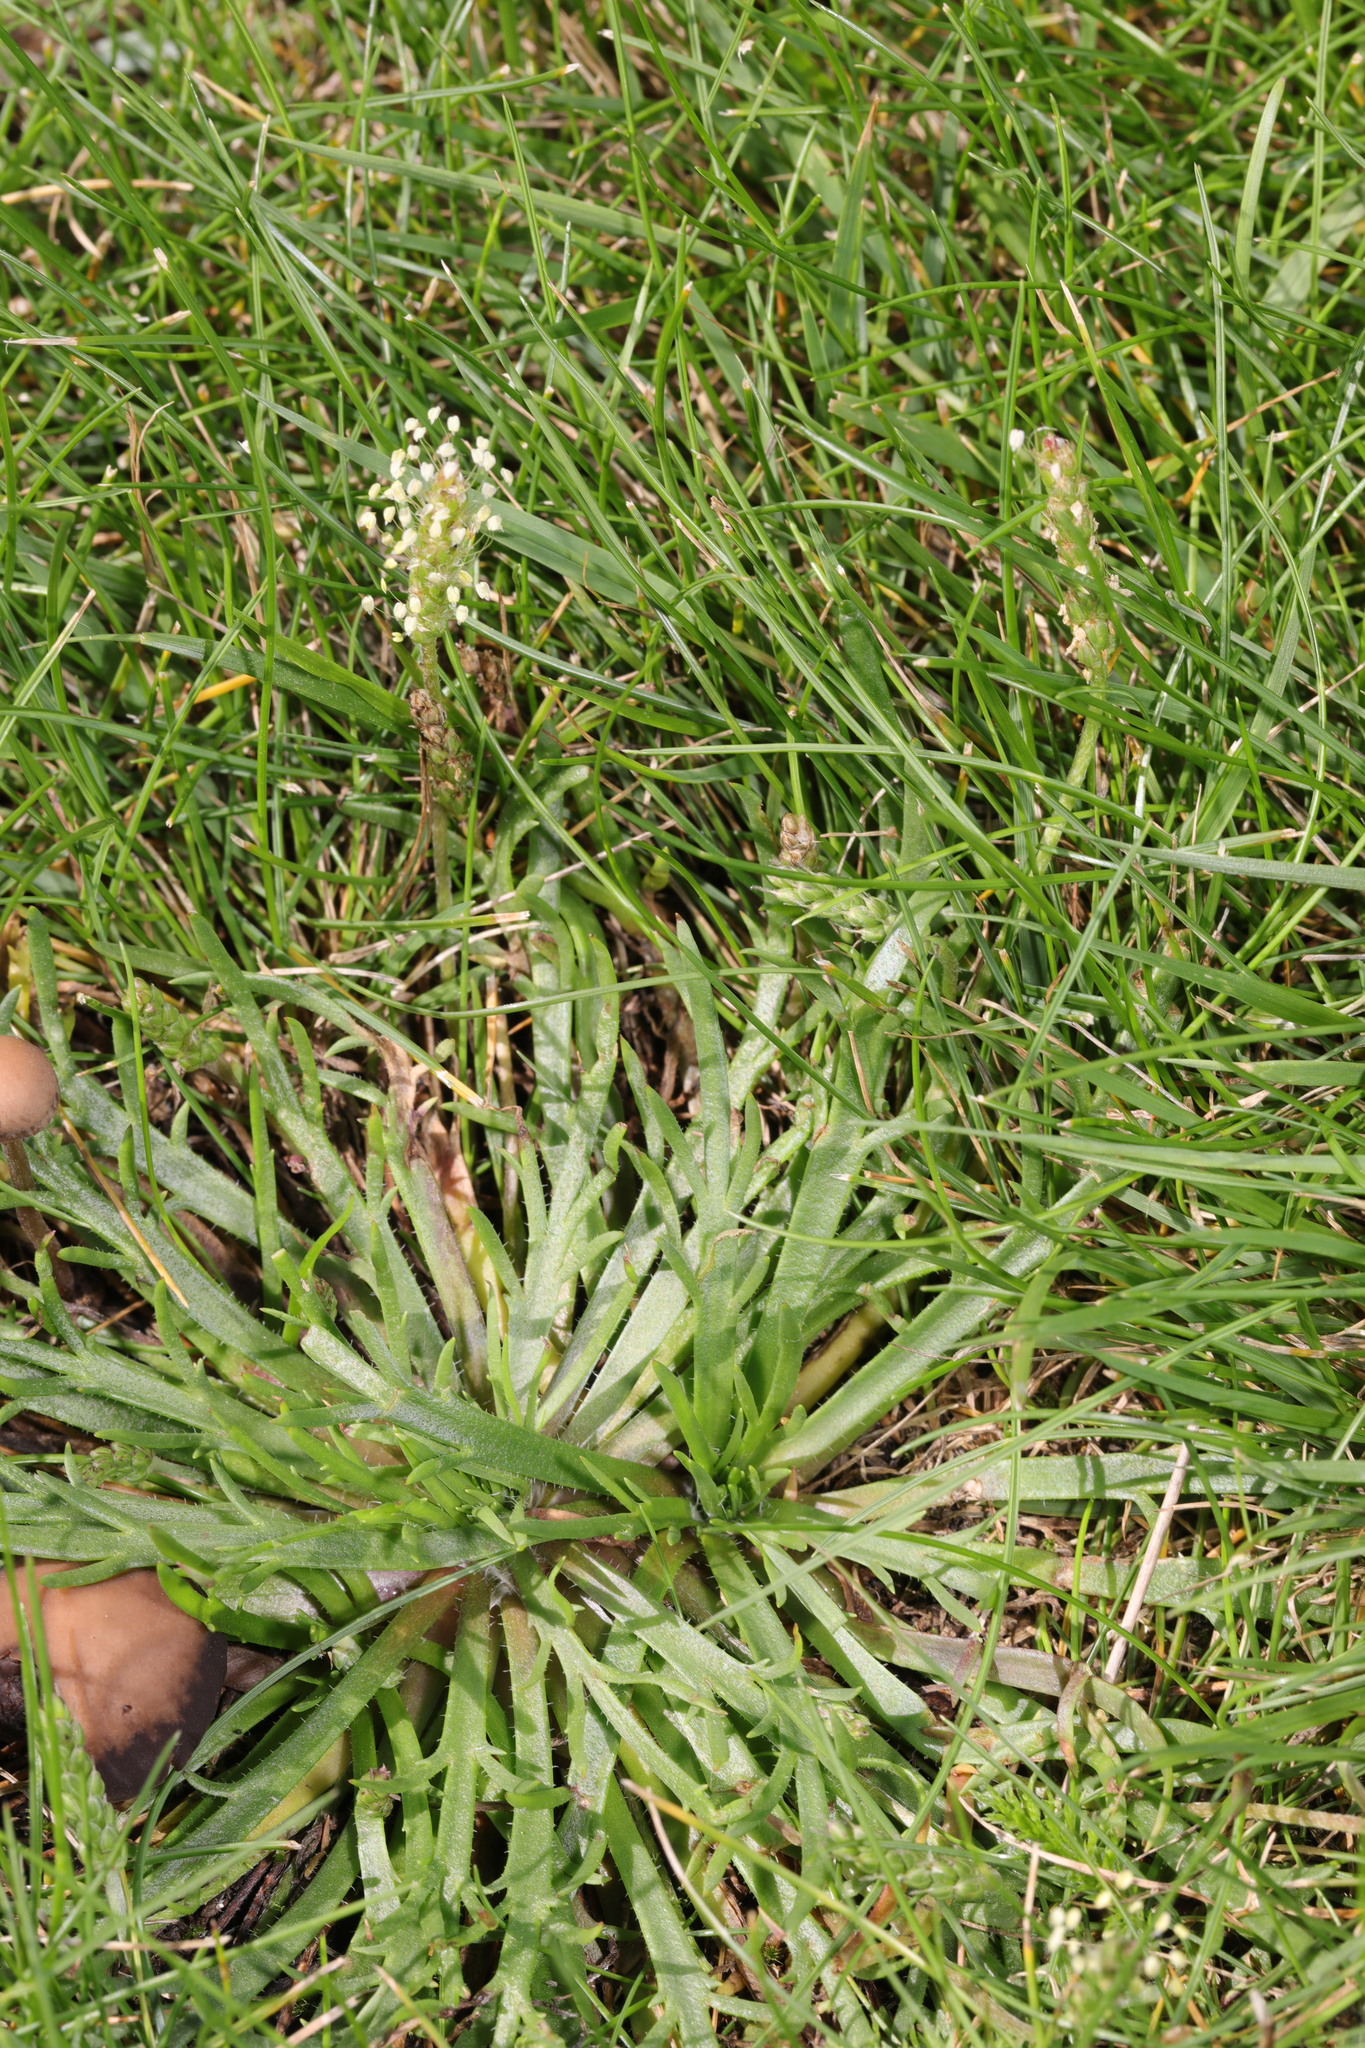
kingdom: Plantae
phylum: Tracheophyta
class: Magnoliopsida
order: Lamiales
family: Plantaginaceae
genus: Plantago
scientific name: Plantago coronopus
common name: Buck's-horn plantain
